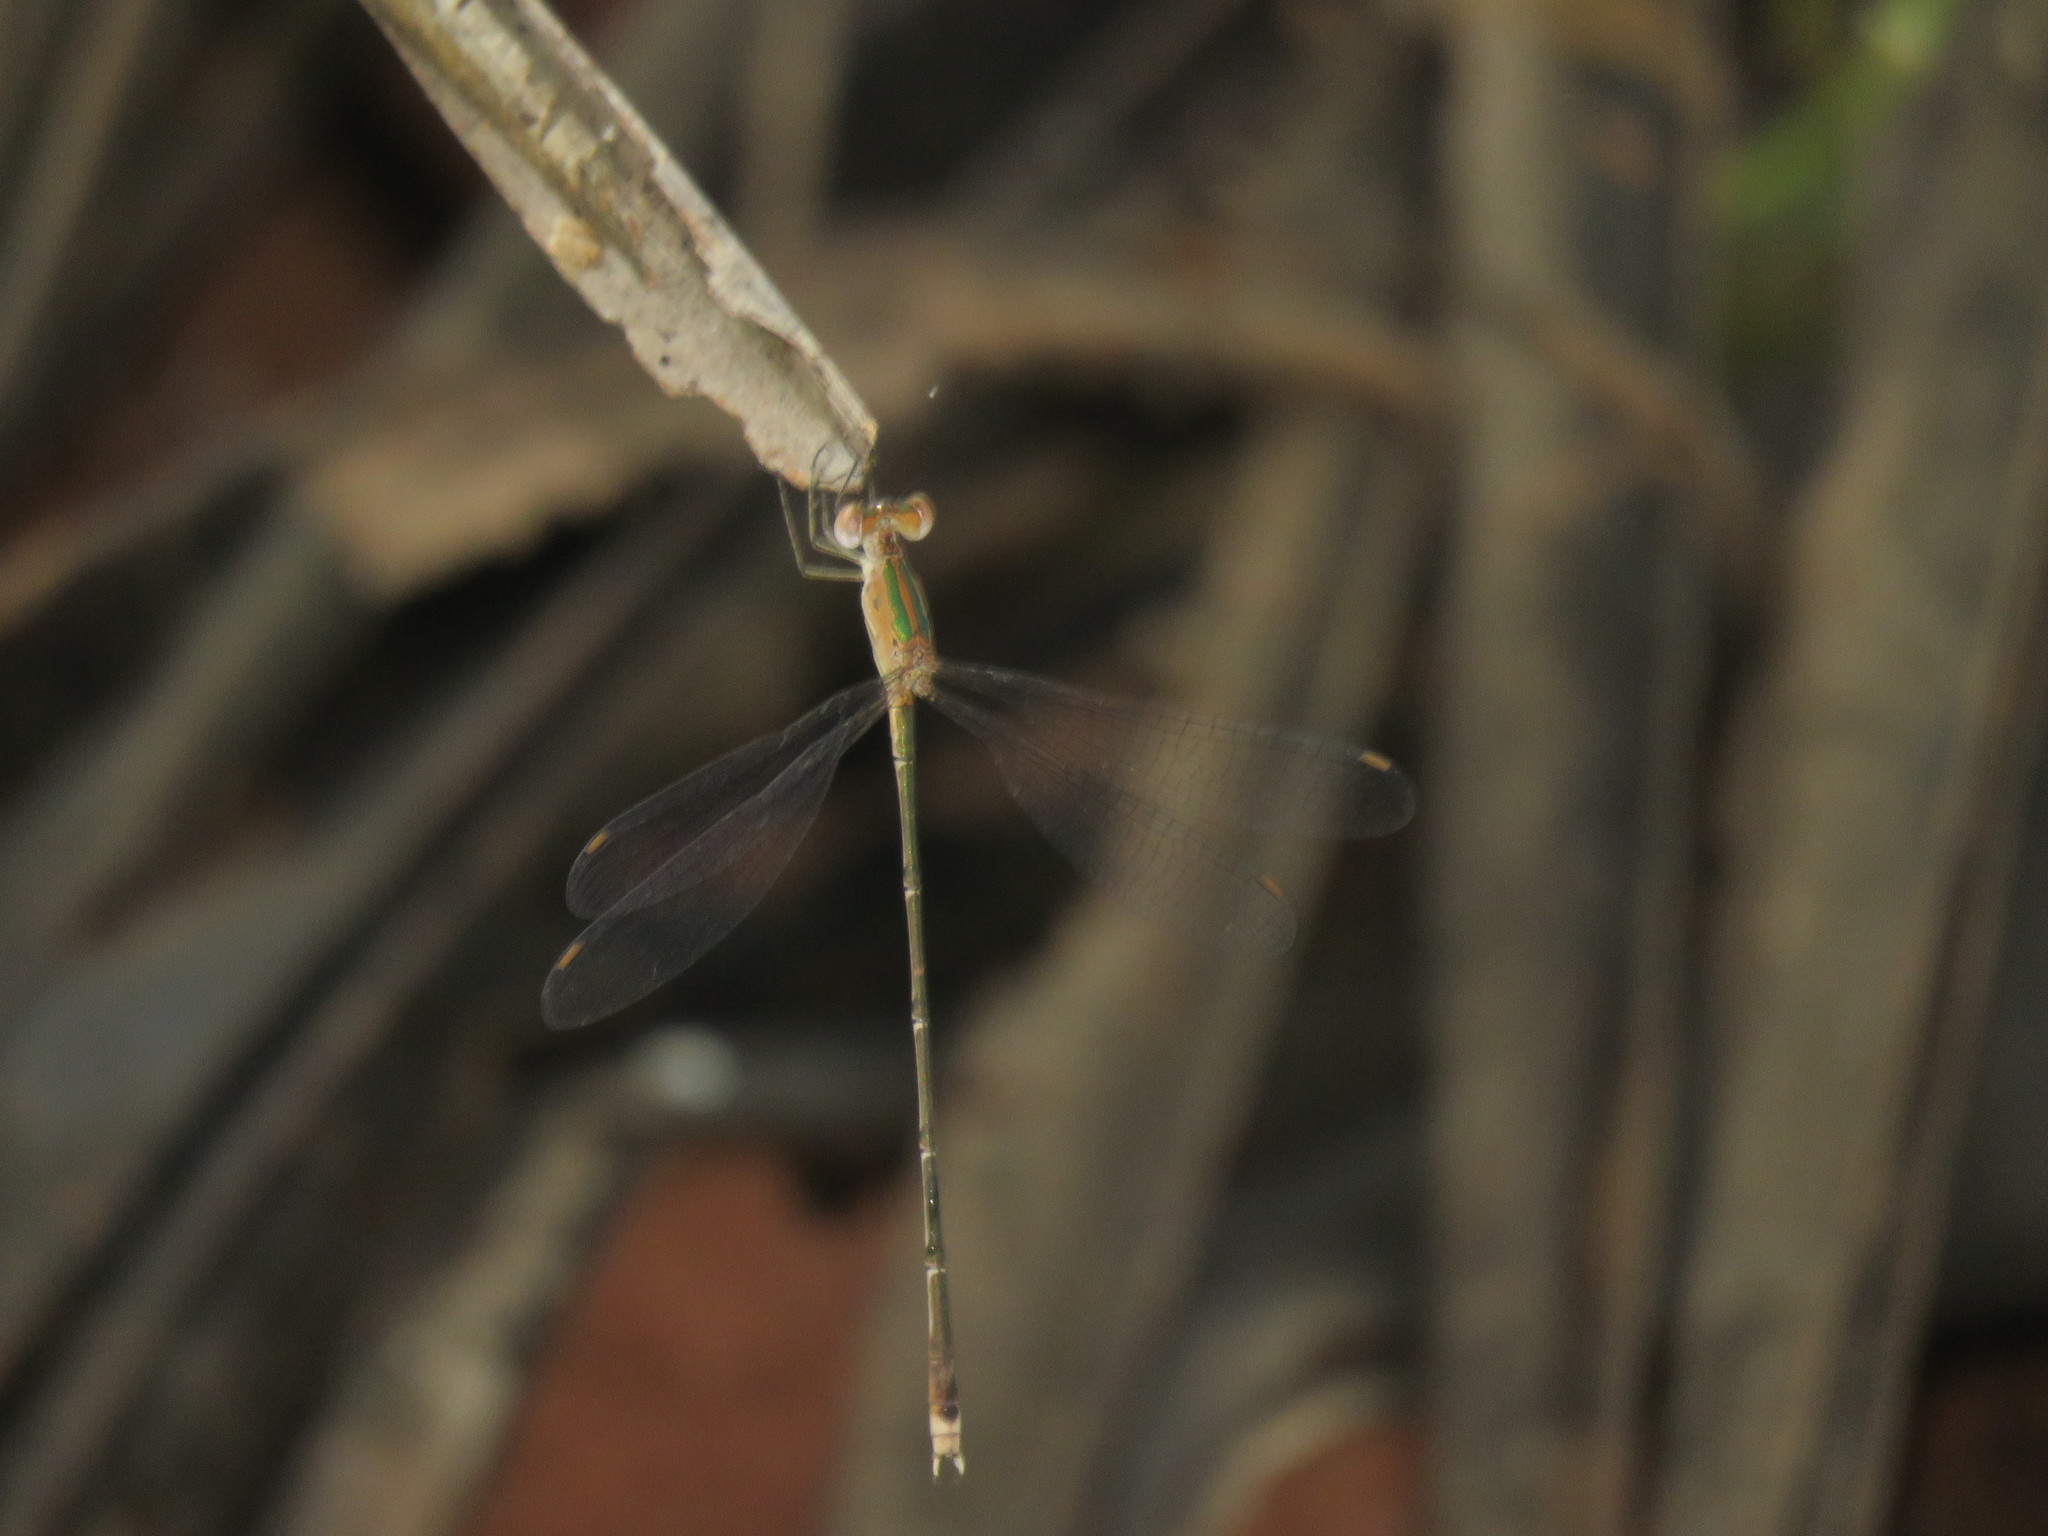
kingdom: Animalia
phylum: Arthropoda
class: Insecta
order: Odonata
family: Lestidae
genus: Lestes
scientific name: Lestes elatus
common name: Emerald spreadwing
